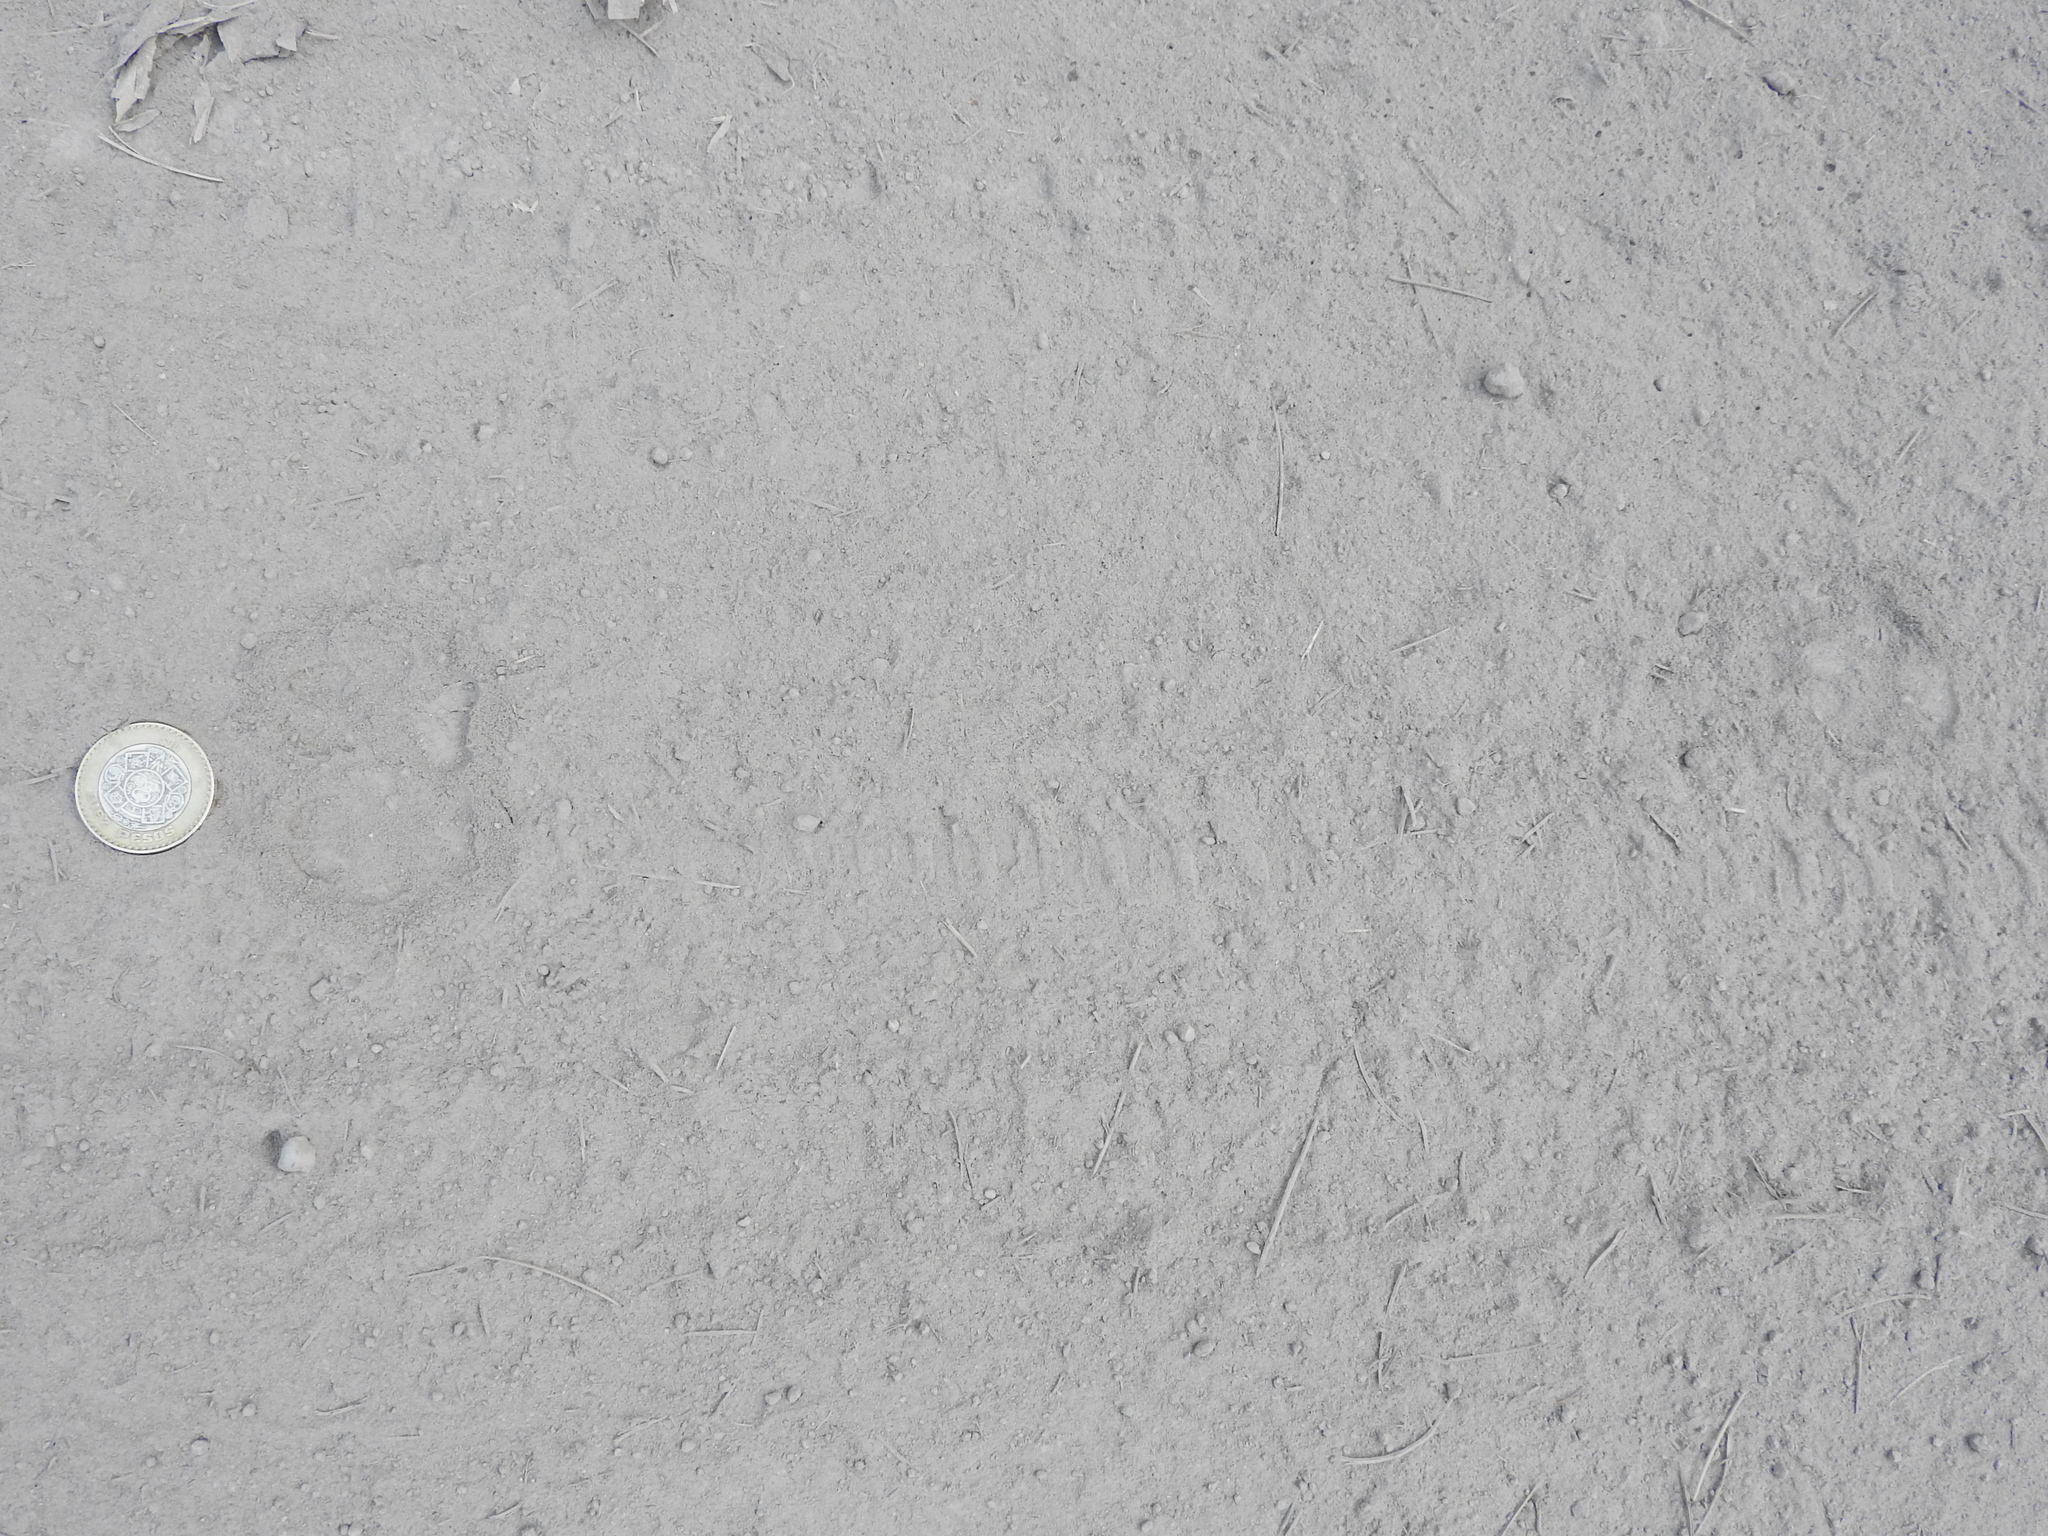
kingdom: Animalia
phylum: Chordata
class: Mammalia
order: Carnivora
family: Canidae
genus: Urocyon
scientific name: Urocyon cinereoargenteus
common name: Gray fox
